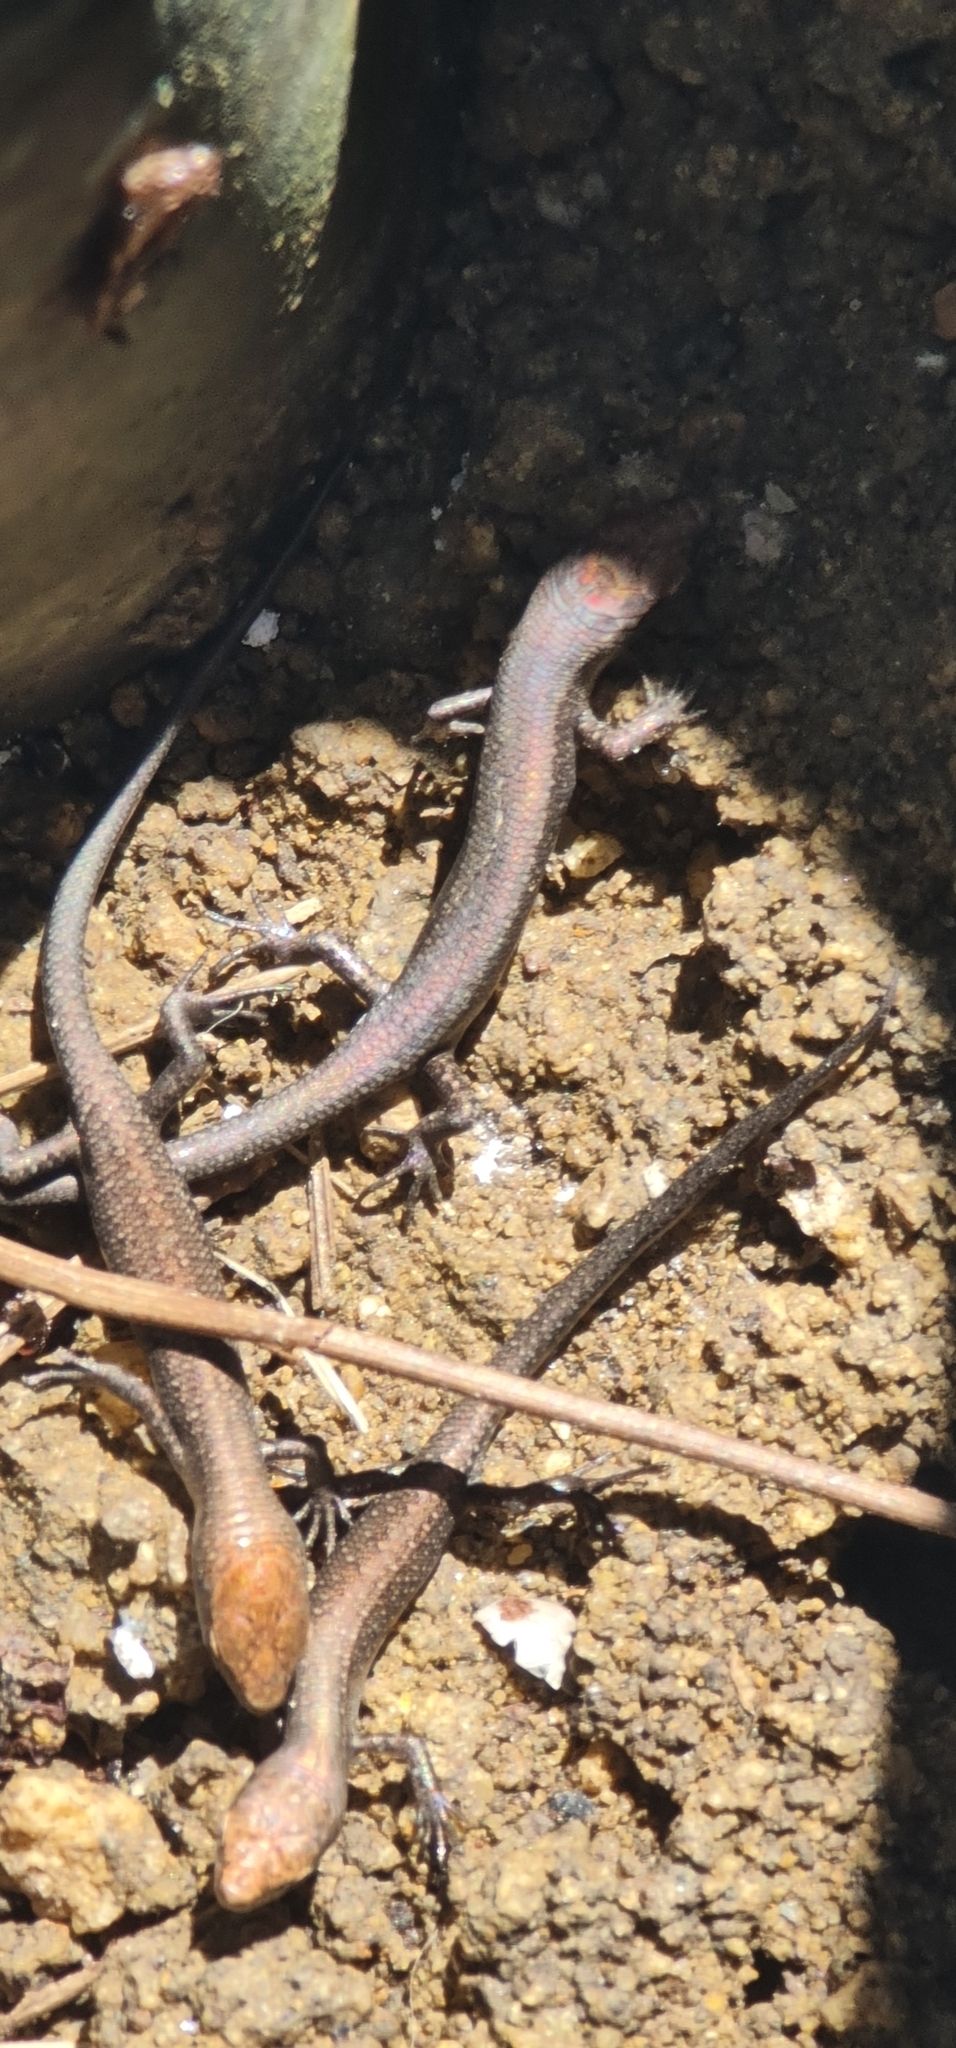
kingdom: Animalia
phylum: Chordata
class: Squamata
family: Scincidae
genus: Lampropholis
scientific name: Lampropholis guichenoti
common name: Garden skink
